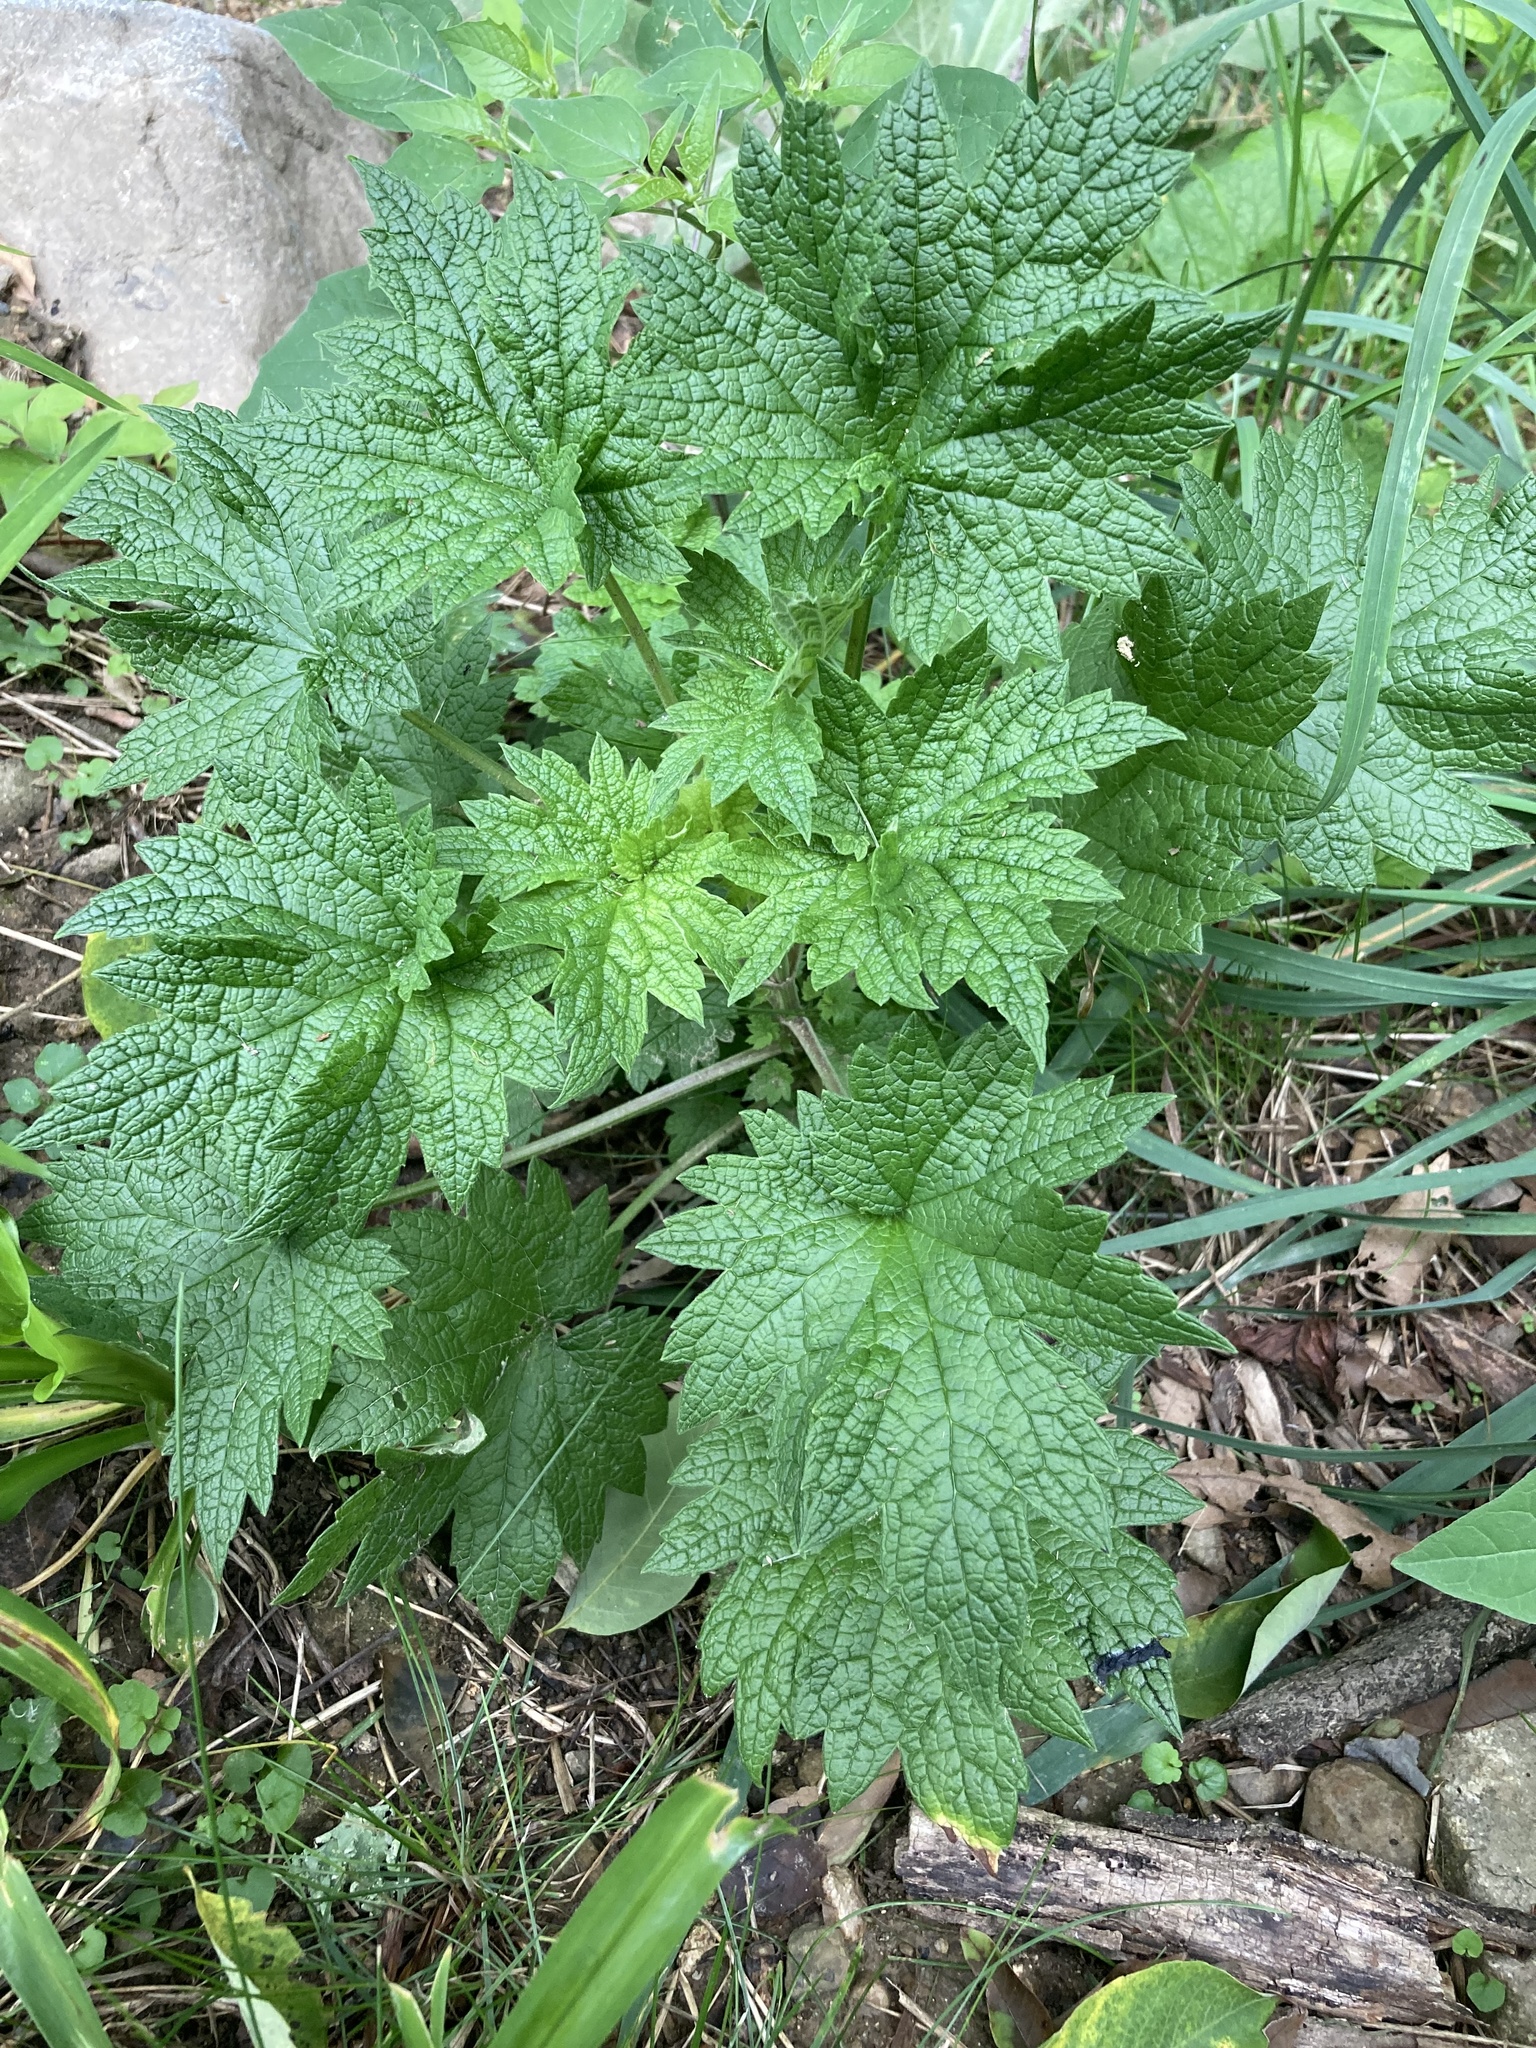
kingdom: Plantae
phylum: Tracheophyta
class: Magnoliopsida
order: Lamiales
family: Lamiaceae
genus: Leonurus
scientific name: Leonurus cardiaca
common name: Motherwort
